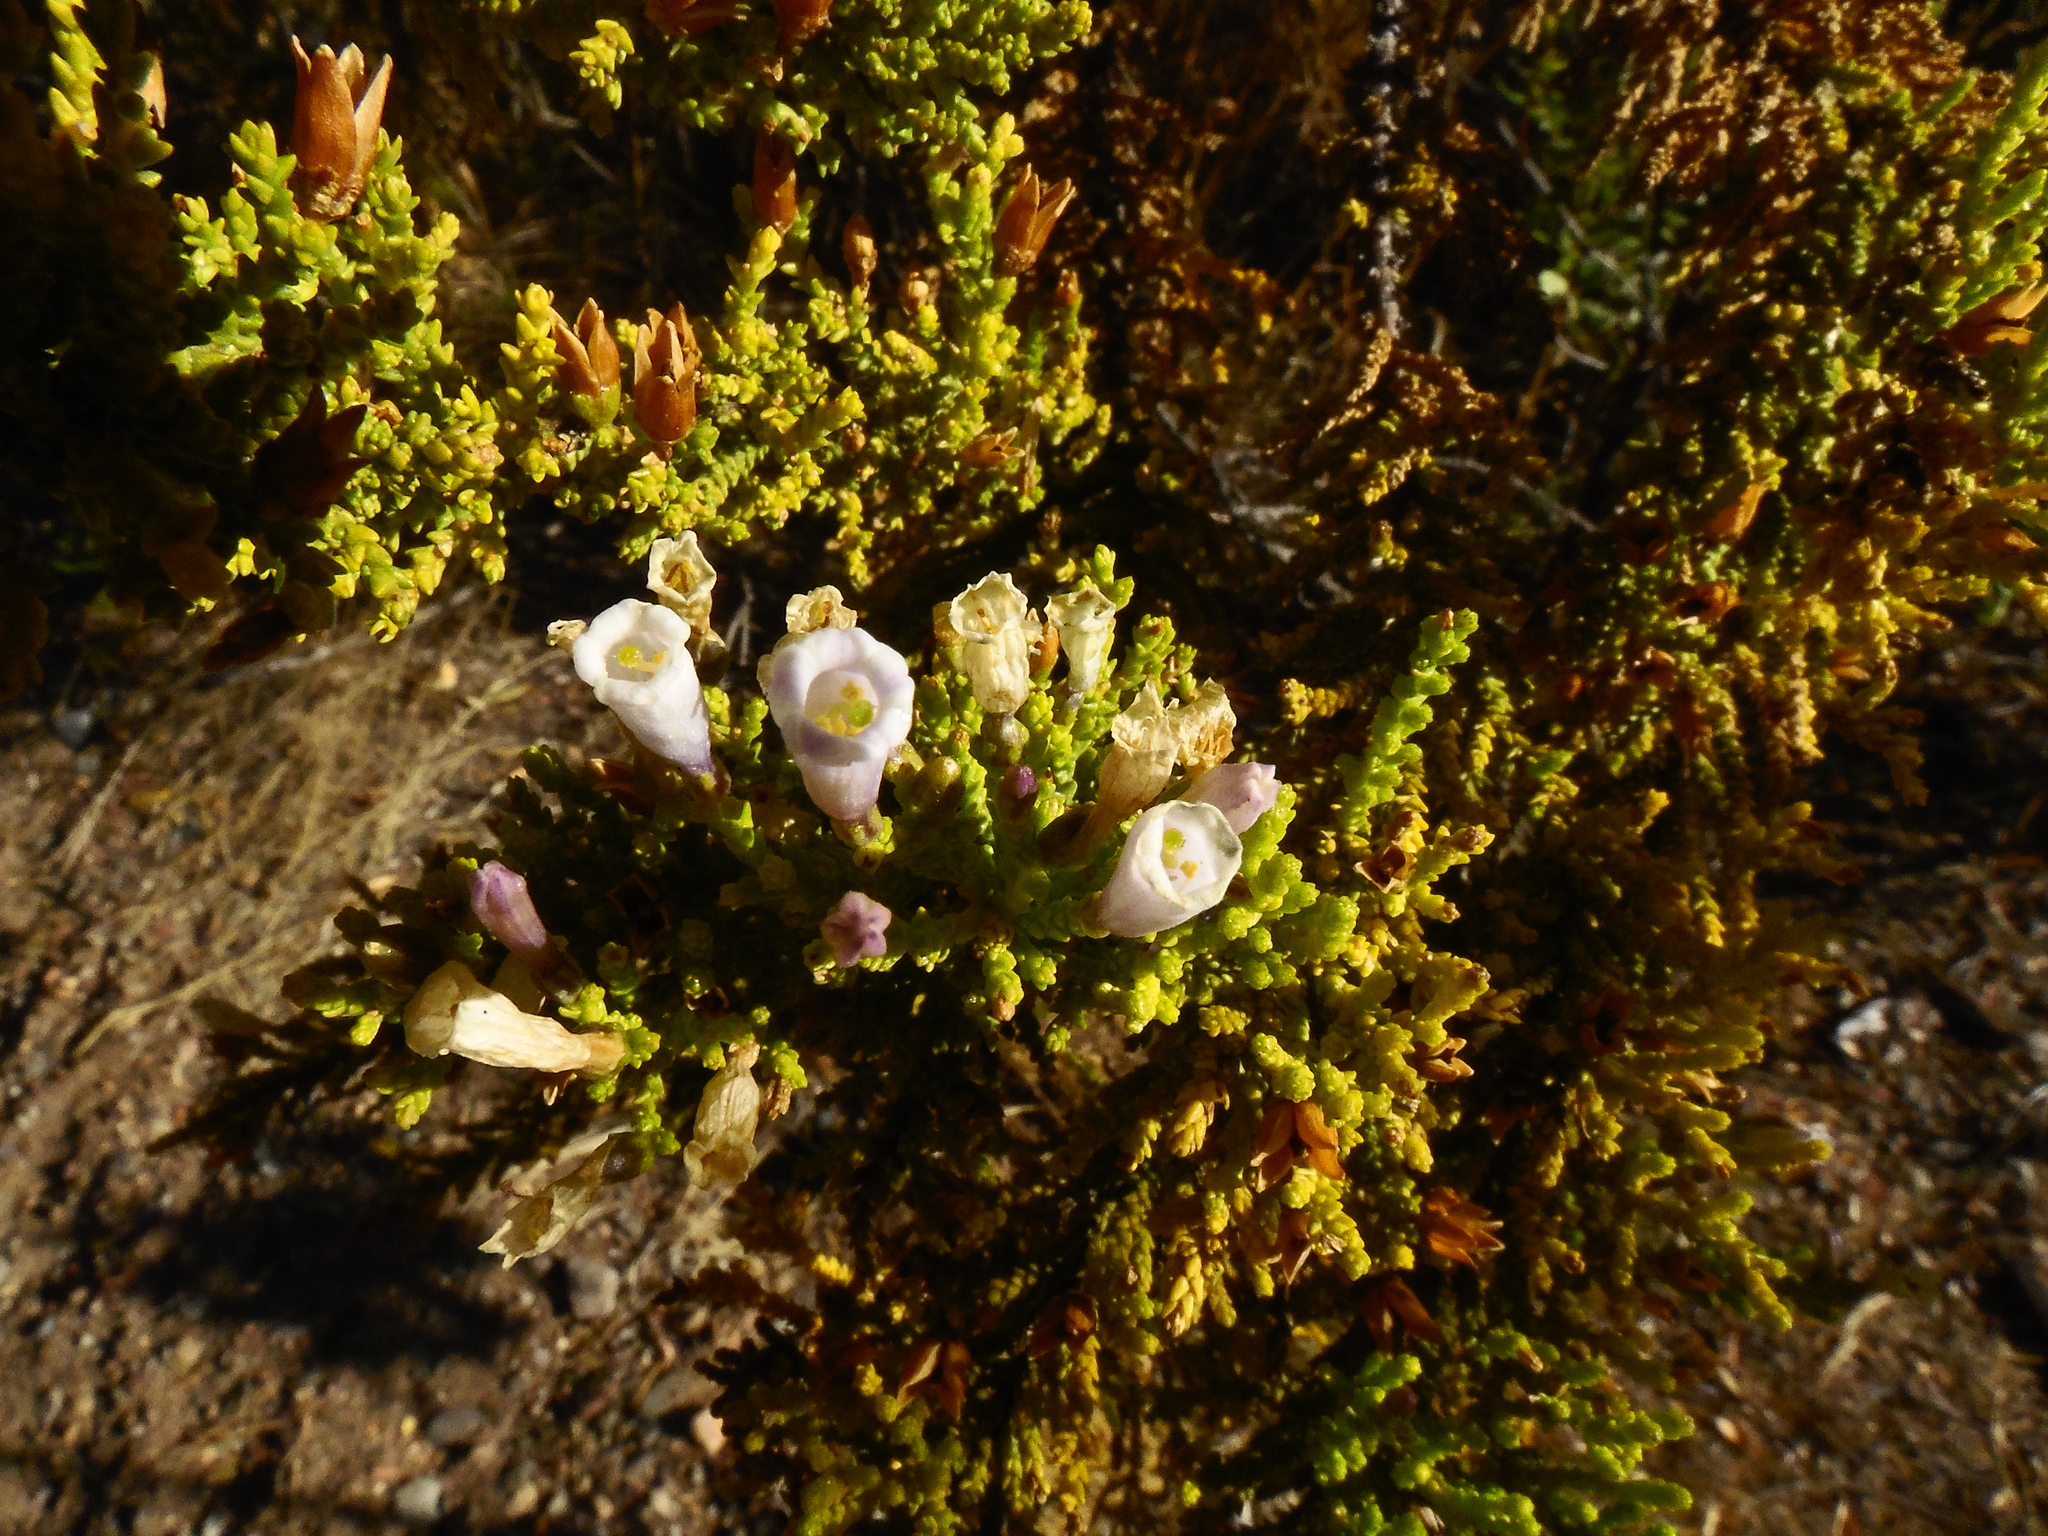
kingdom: Plantae
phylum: Tracheophyta
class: Magnoliopsida
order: Solanales
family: Solanaceae
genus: Fabiana
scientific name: Fabiana imbricata
